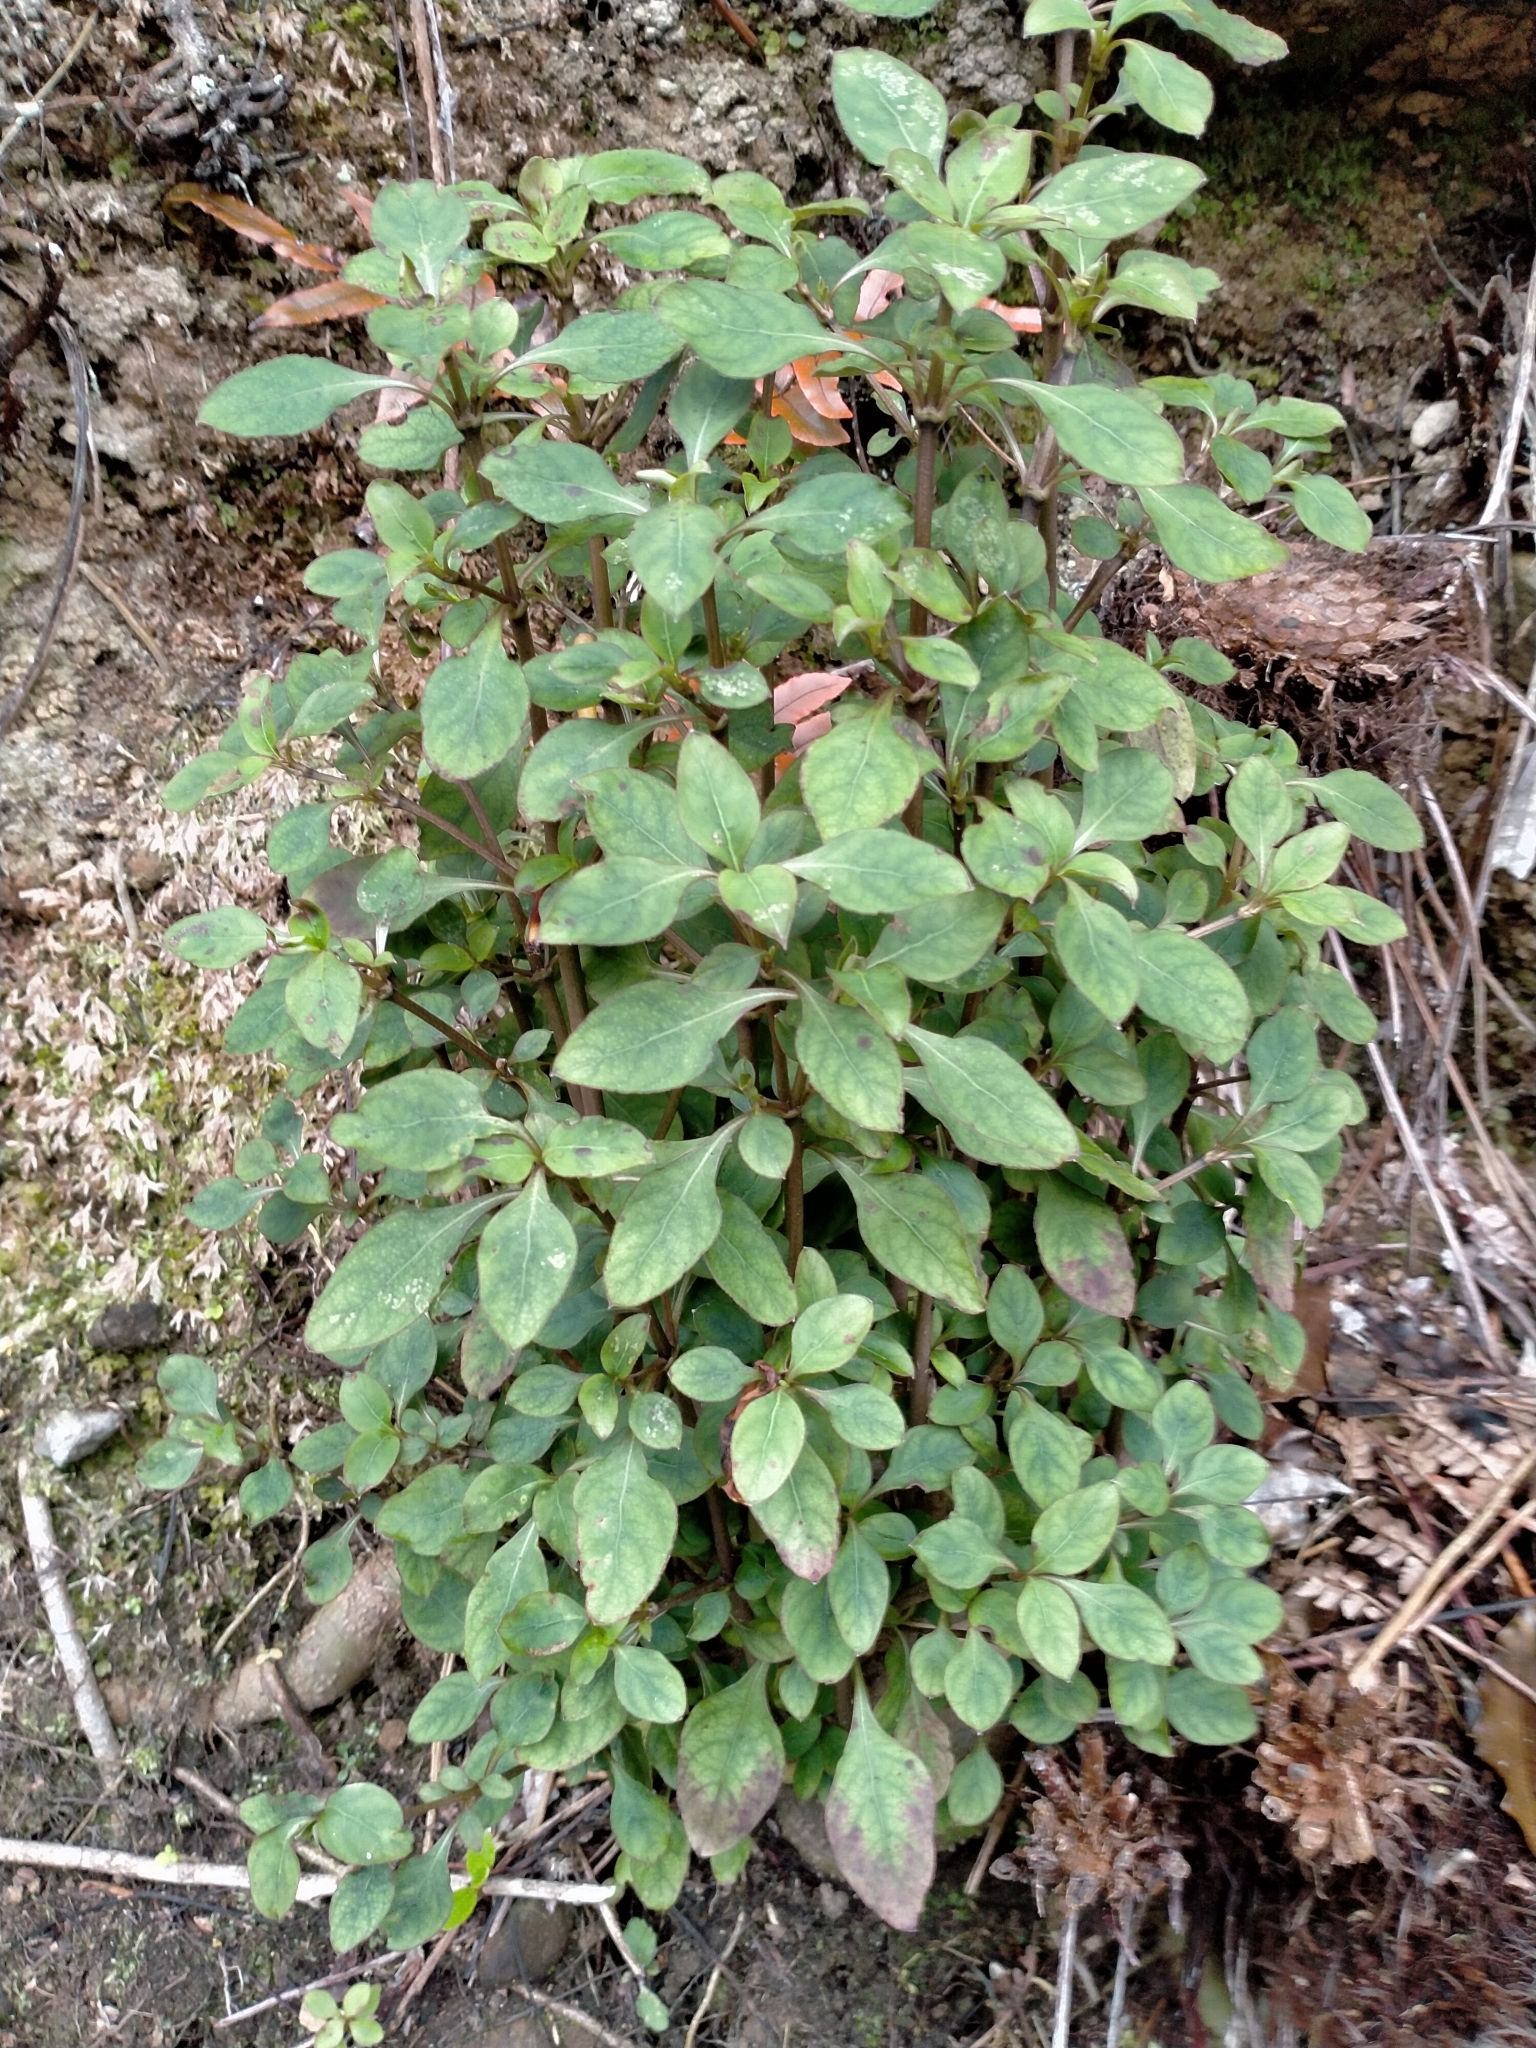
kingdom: Plantae
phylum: Tracheophyta
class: Magnoliopsida
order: Gentianales
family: Rubiaceae
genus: Coprosma
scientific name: Coprosma foetidissima
